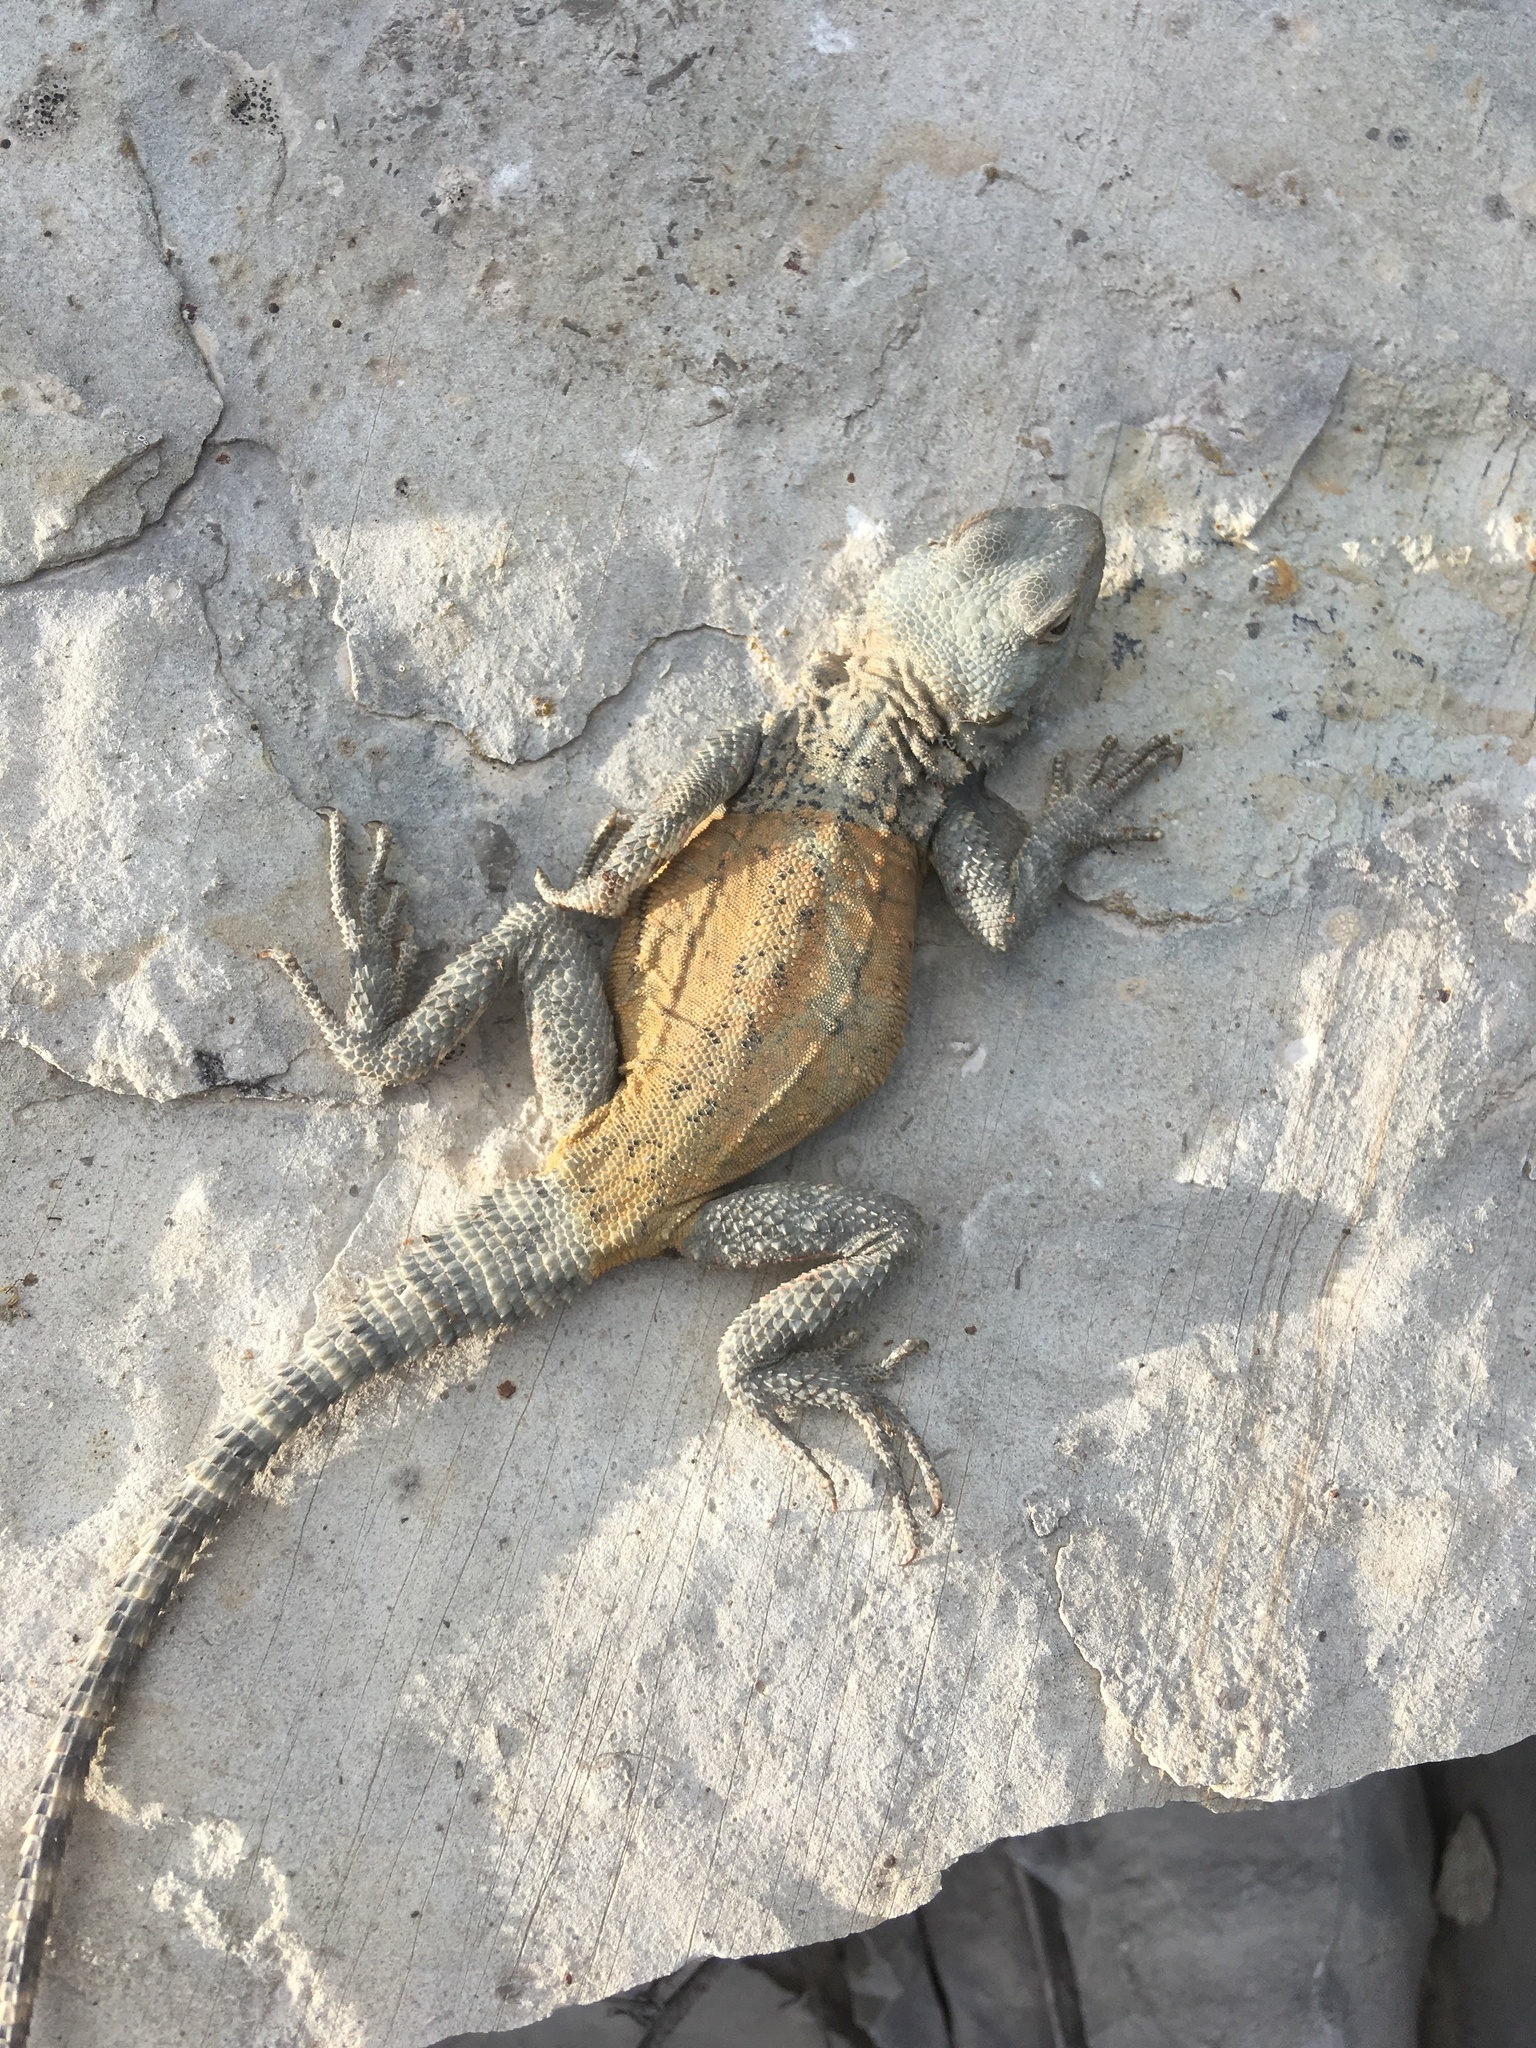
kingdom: Animalia
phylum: Chordata
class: Squamata
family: Agamidae
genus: Paralaudakia
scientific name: Paralaudakia caucasia
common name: Caucasian agama
